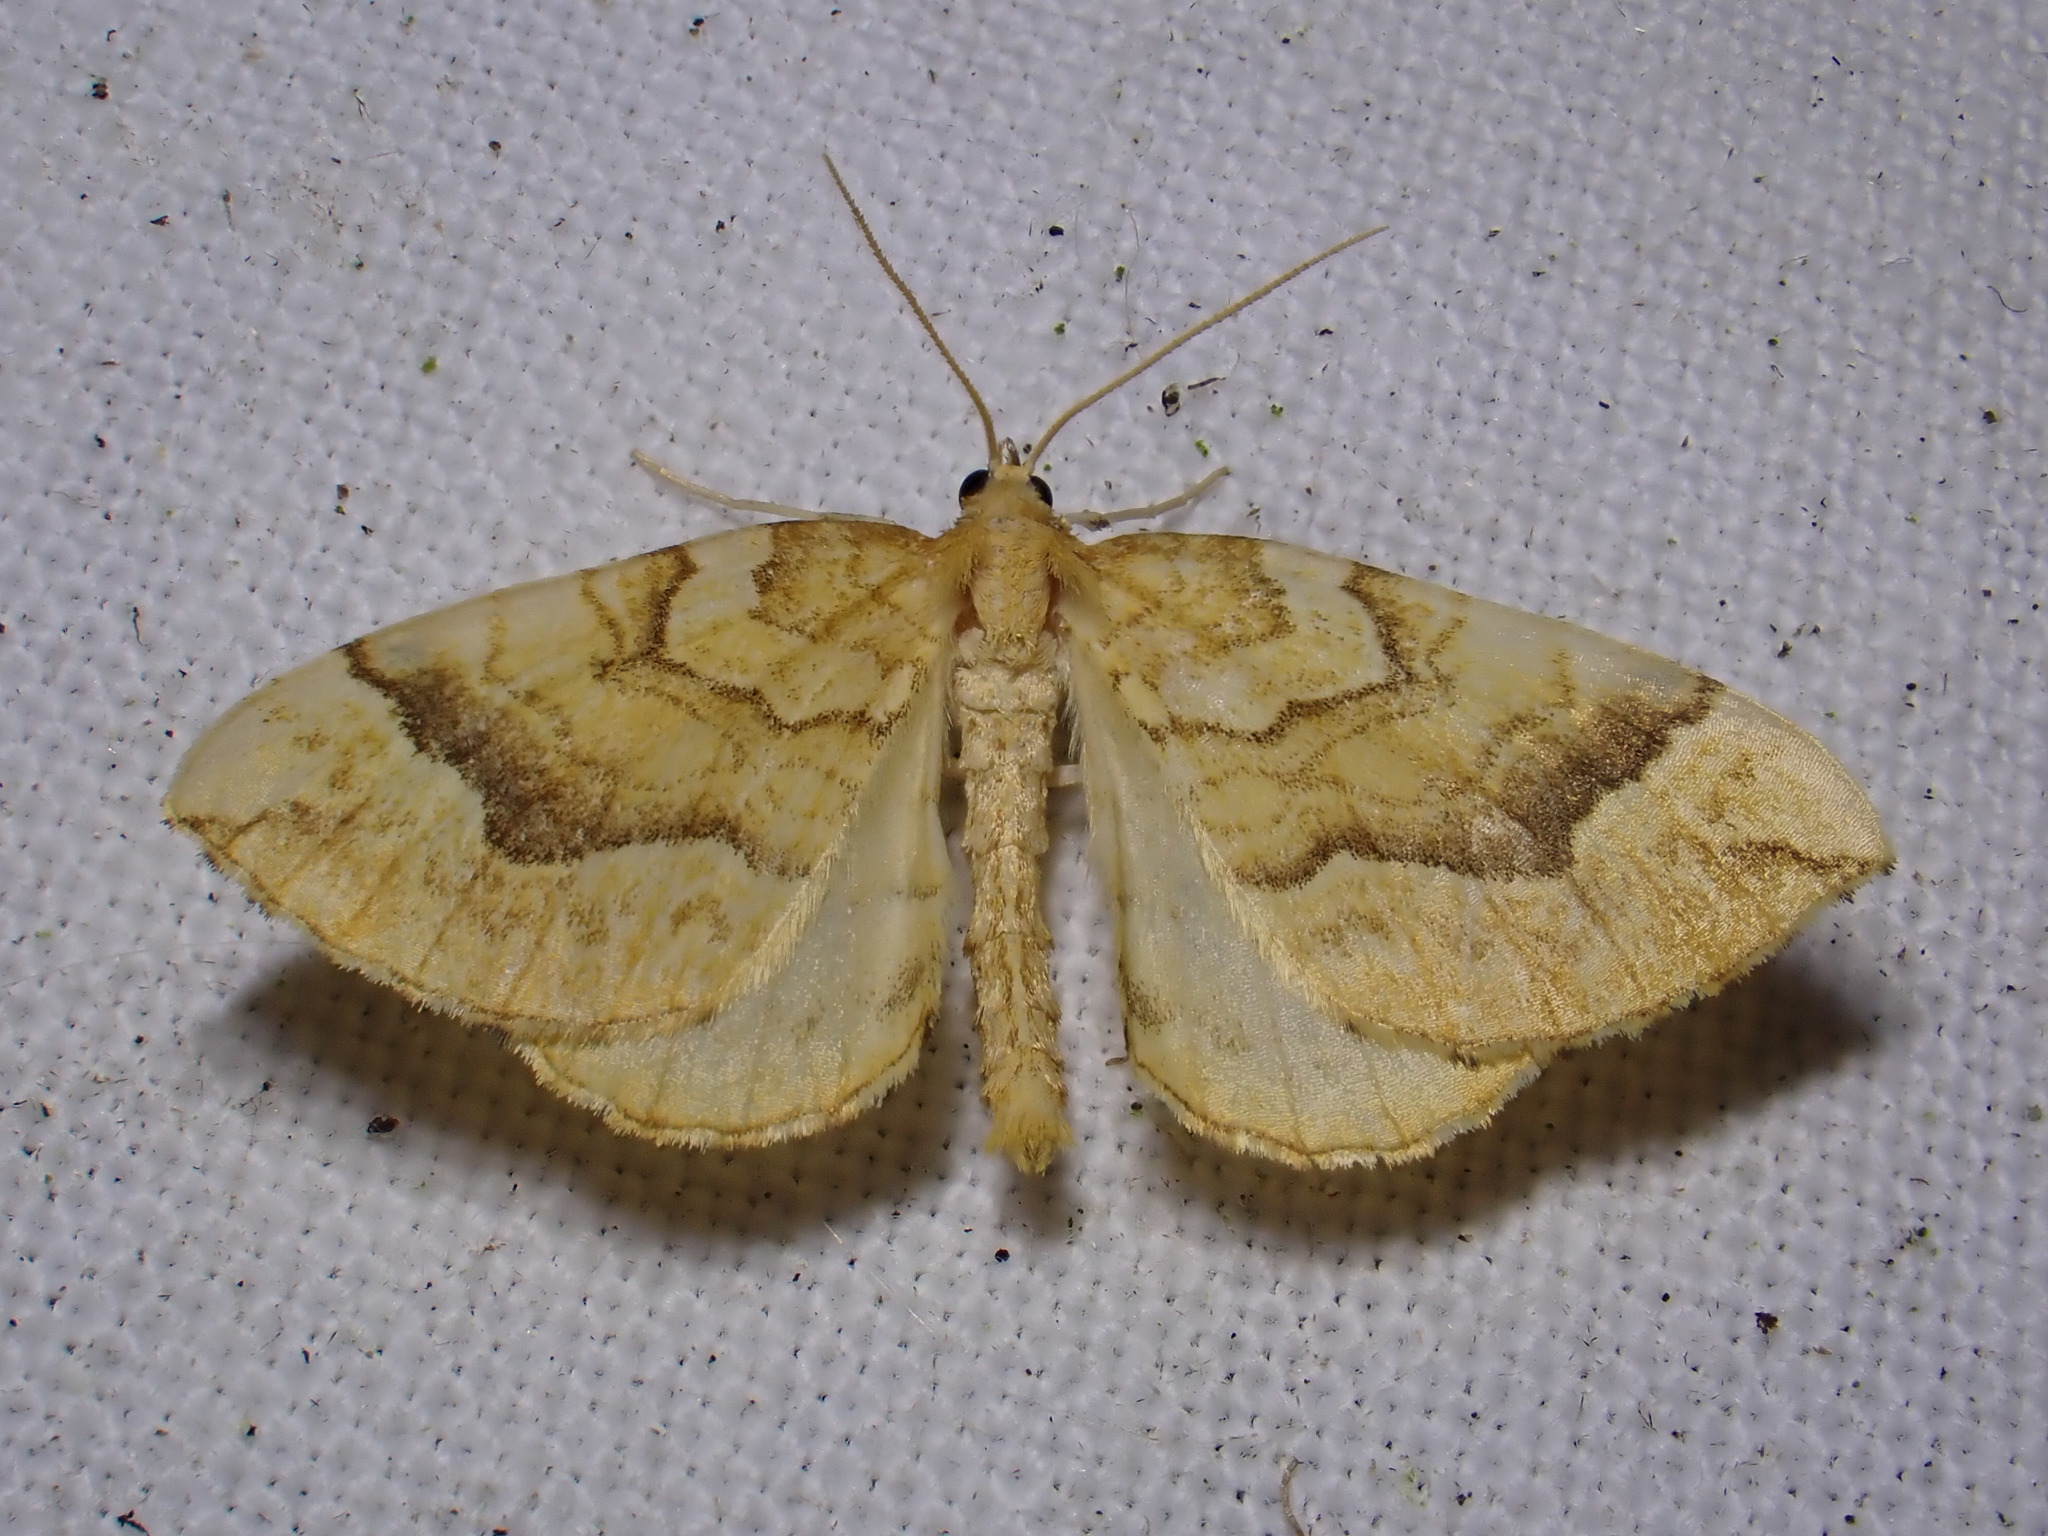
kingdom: Animalia
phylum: Arthropoda
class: Insecta
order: Lepidoptera
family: Geometridae
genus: Eulithis
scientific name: Eulithis mellinata
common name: Spinach
